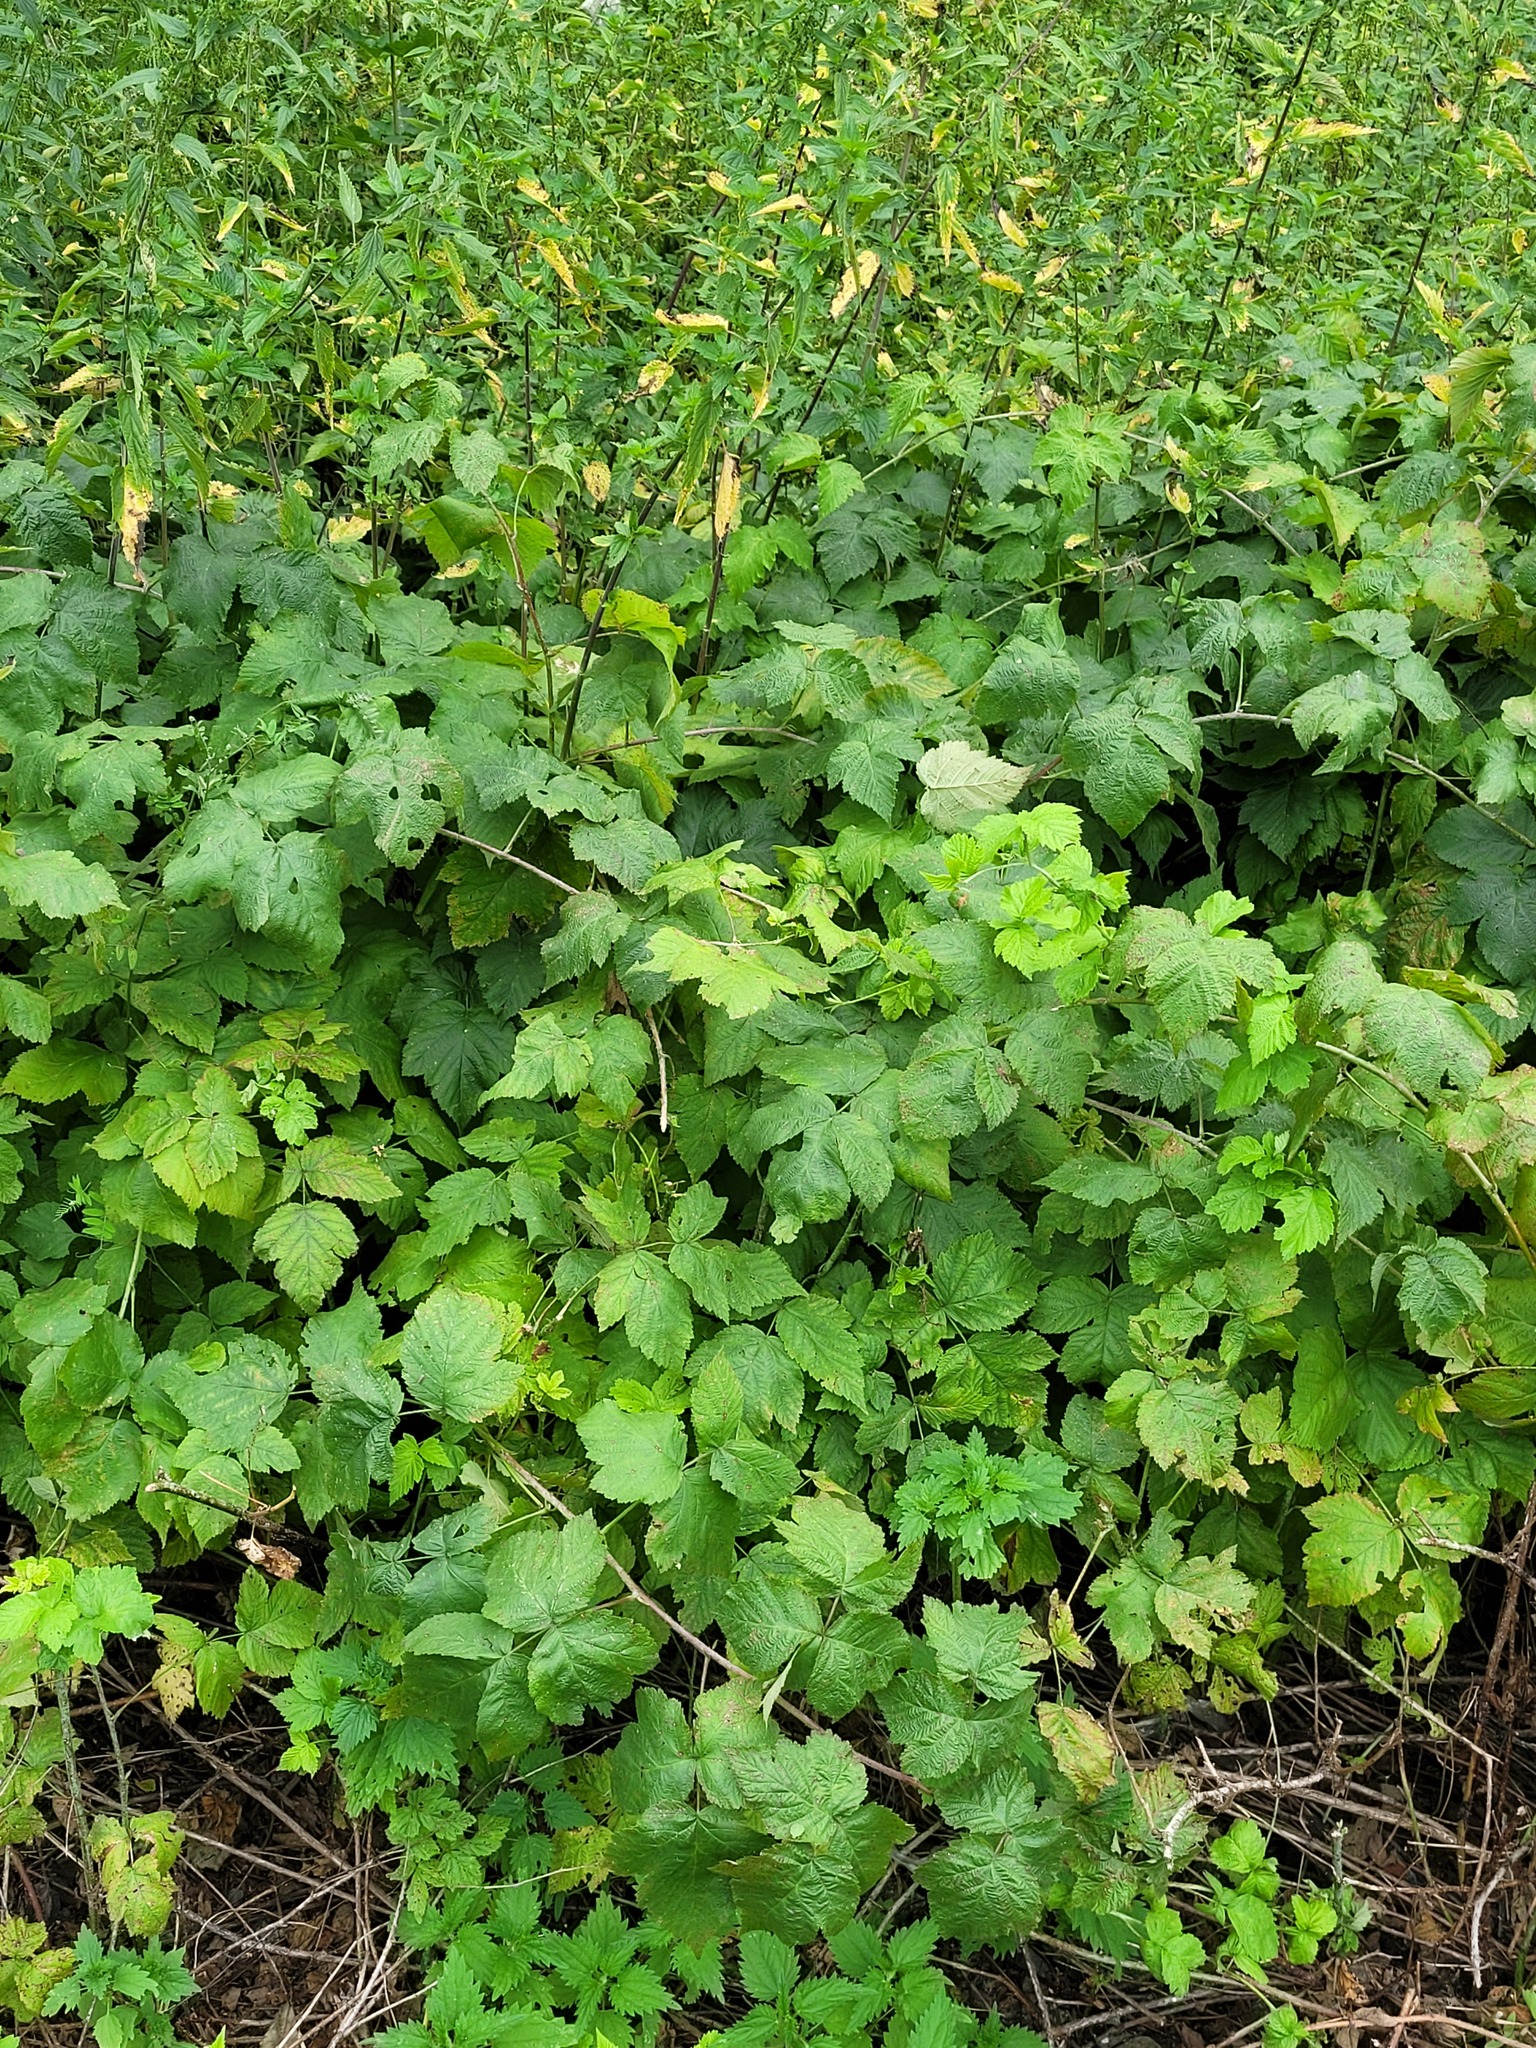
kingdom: Plantae
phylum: Tracheophyta
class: Magnoliopsida
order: Rosales
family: Rosaceae
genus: Rubus
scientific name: Rubus caesius
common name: Dewberry
